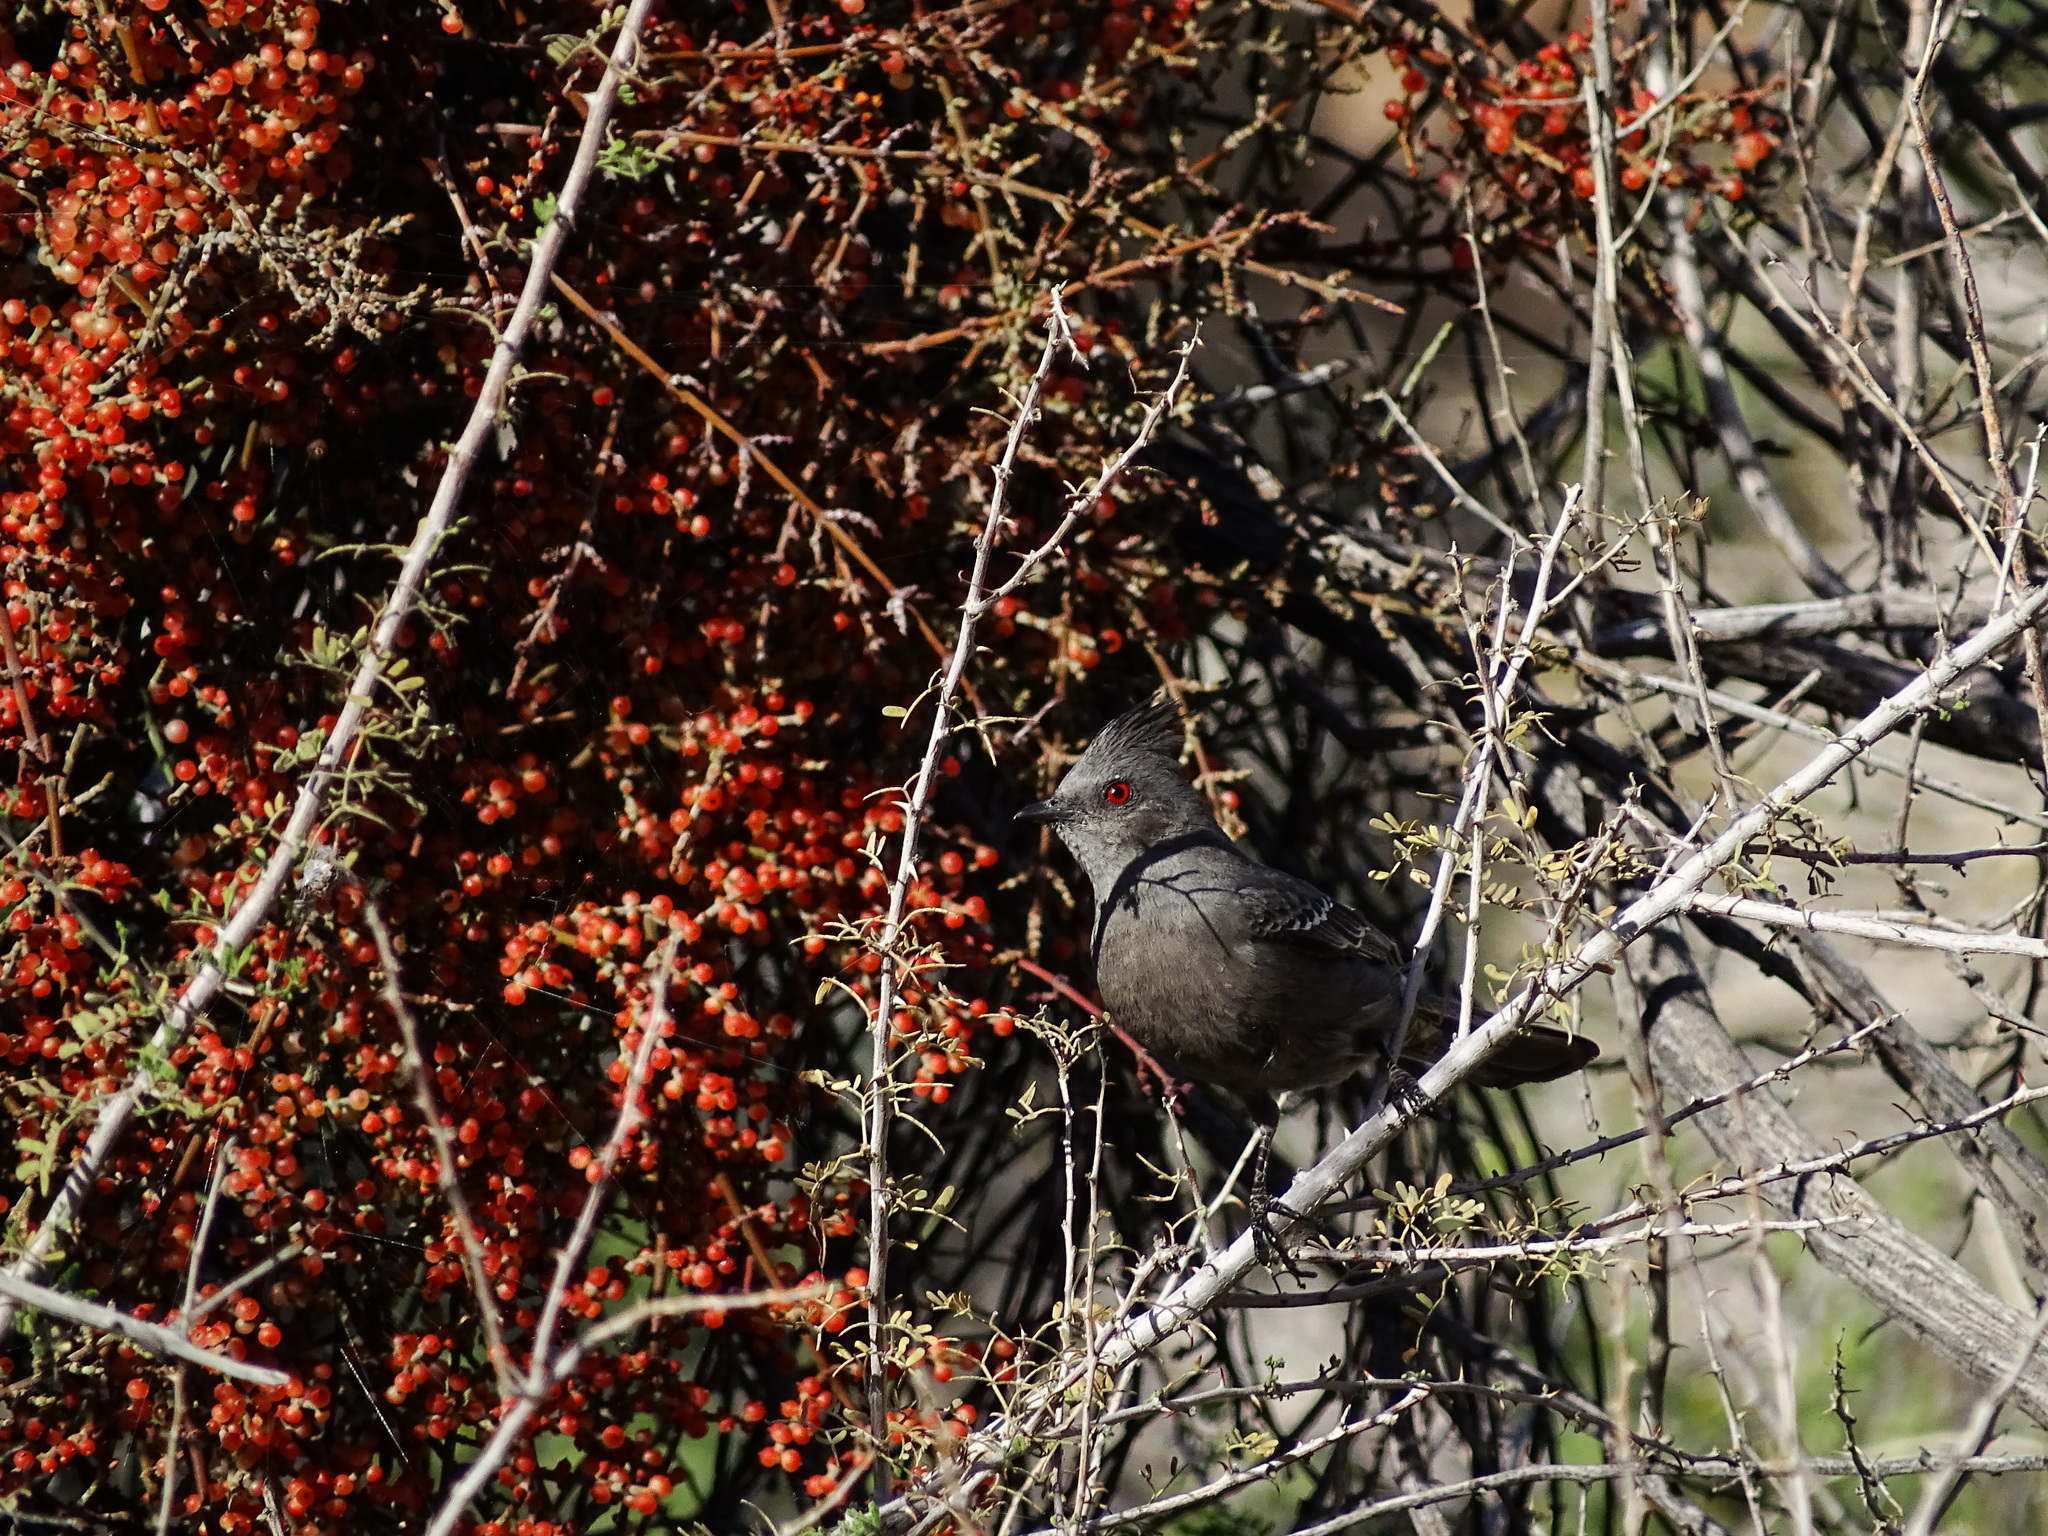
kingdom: Animalia
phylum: Chordata
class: Aves
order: Passeriformes
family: Ptilogonatidae
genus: Phainopepla
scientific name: Phainopepla nitens
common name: Phainopepla
